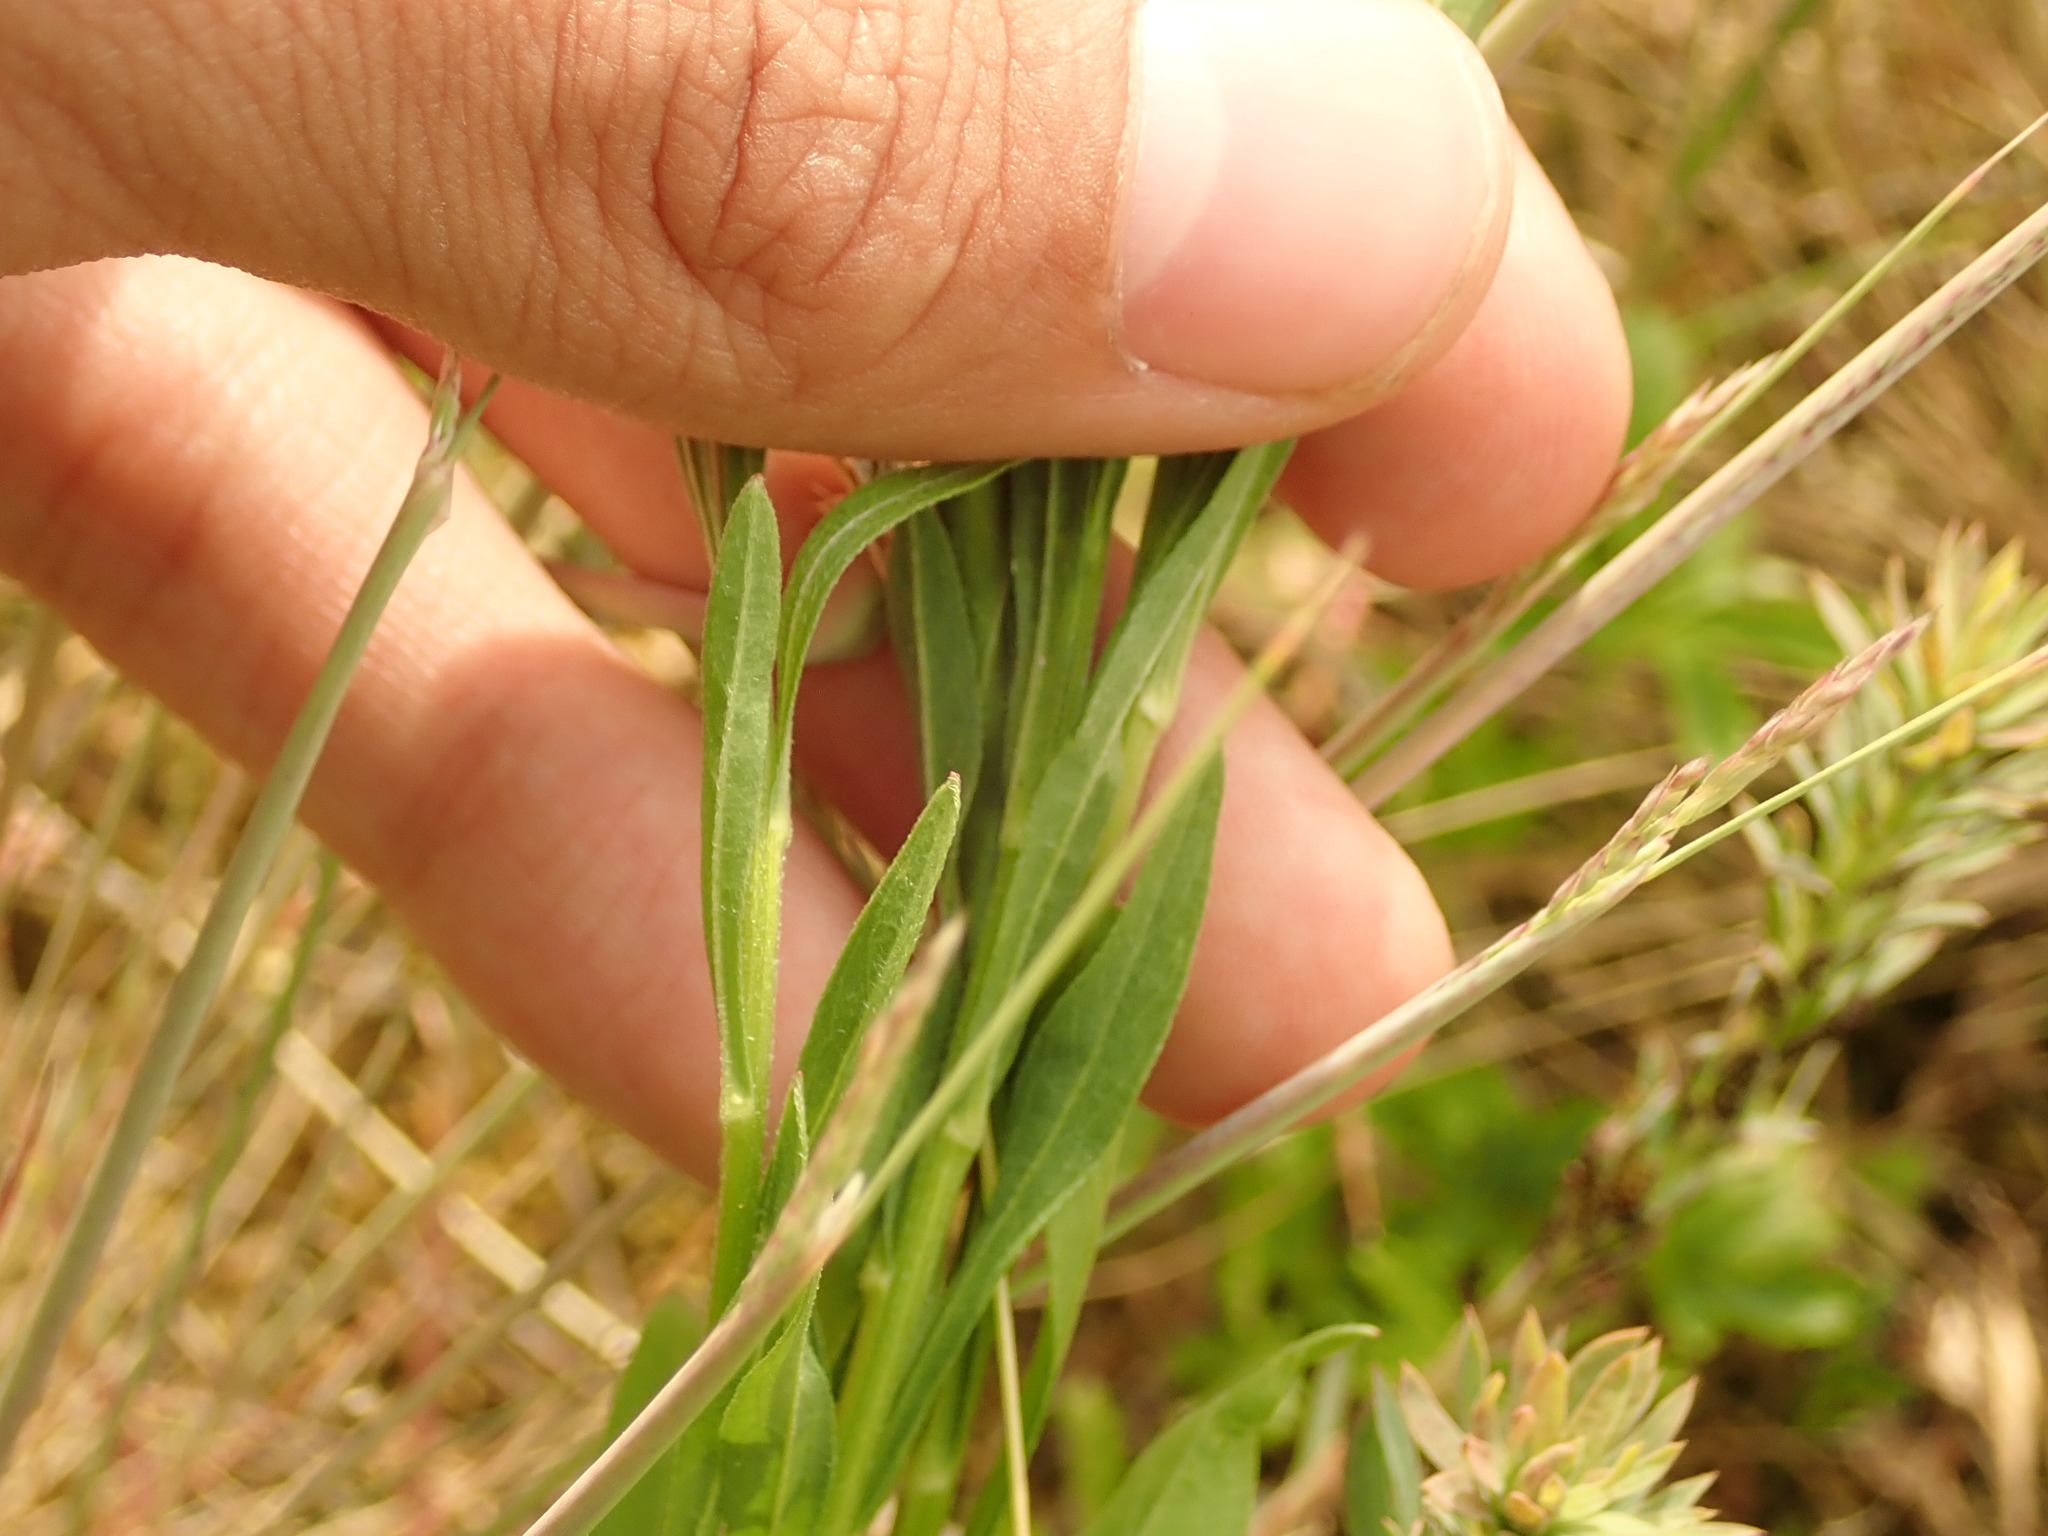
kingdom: Plantae
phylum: Tracheophyta
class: Magnoliopsida
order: Asterales
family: Asteraceae
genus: Erigeron
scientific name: Erigeron annuus
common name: Tall fleabane
